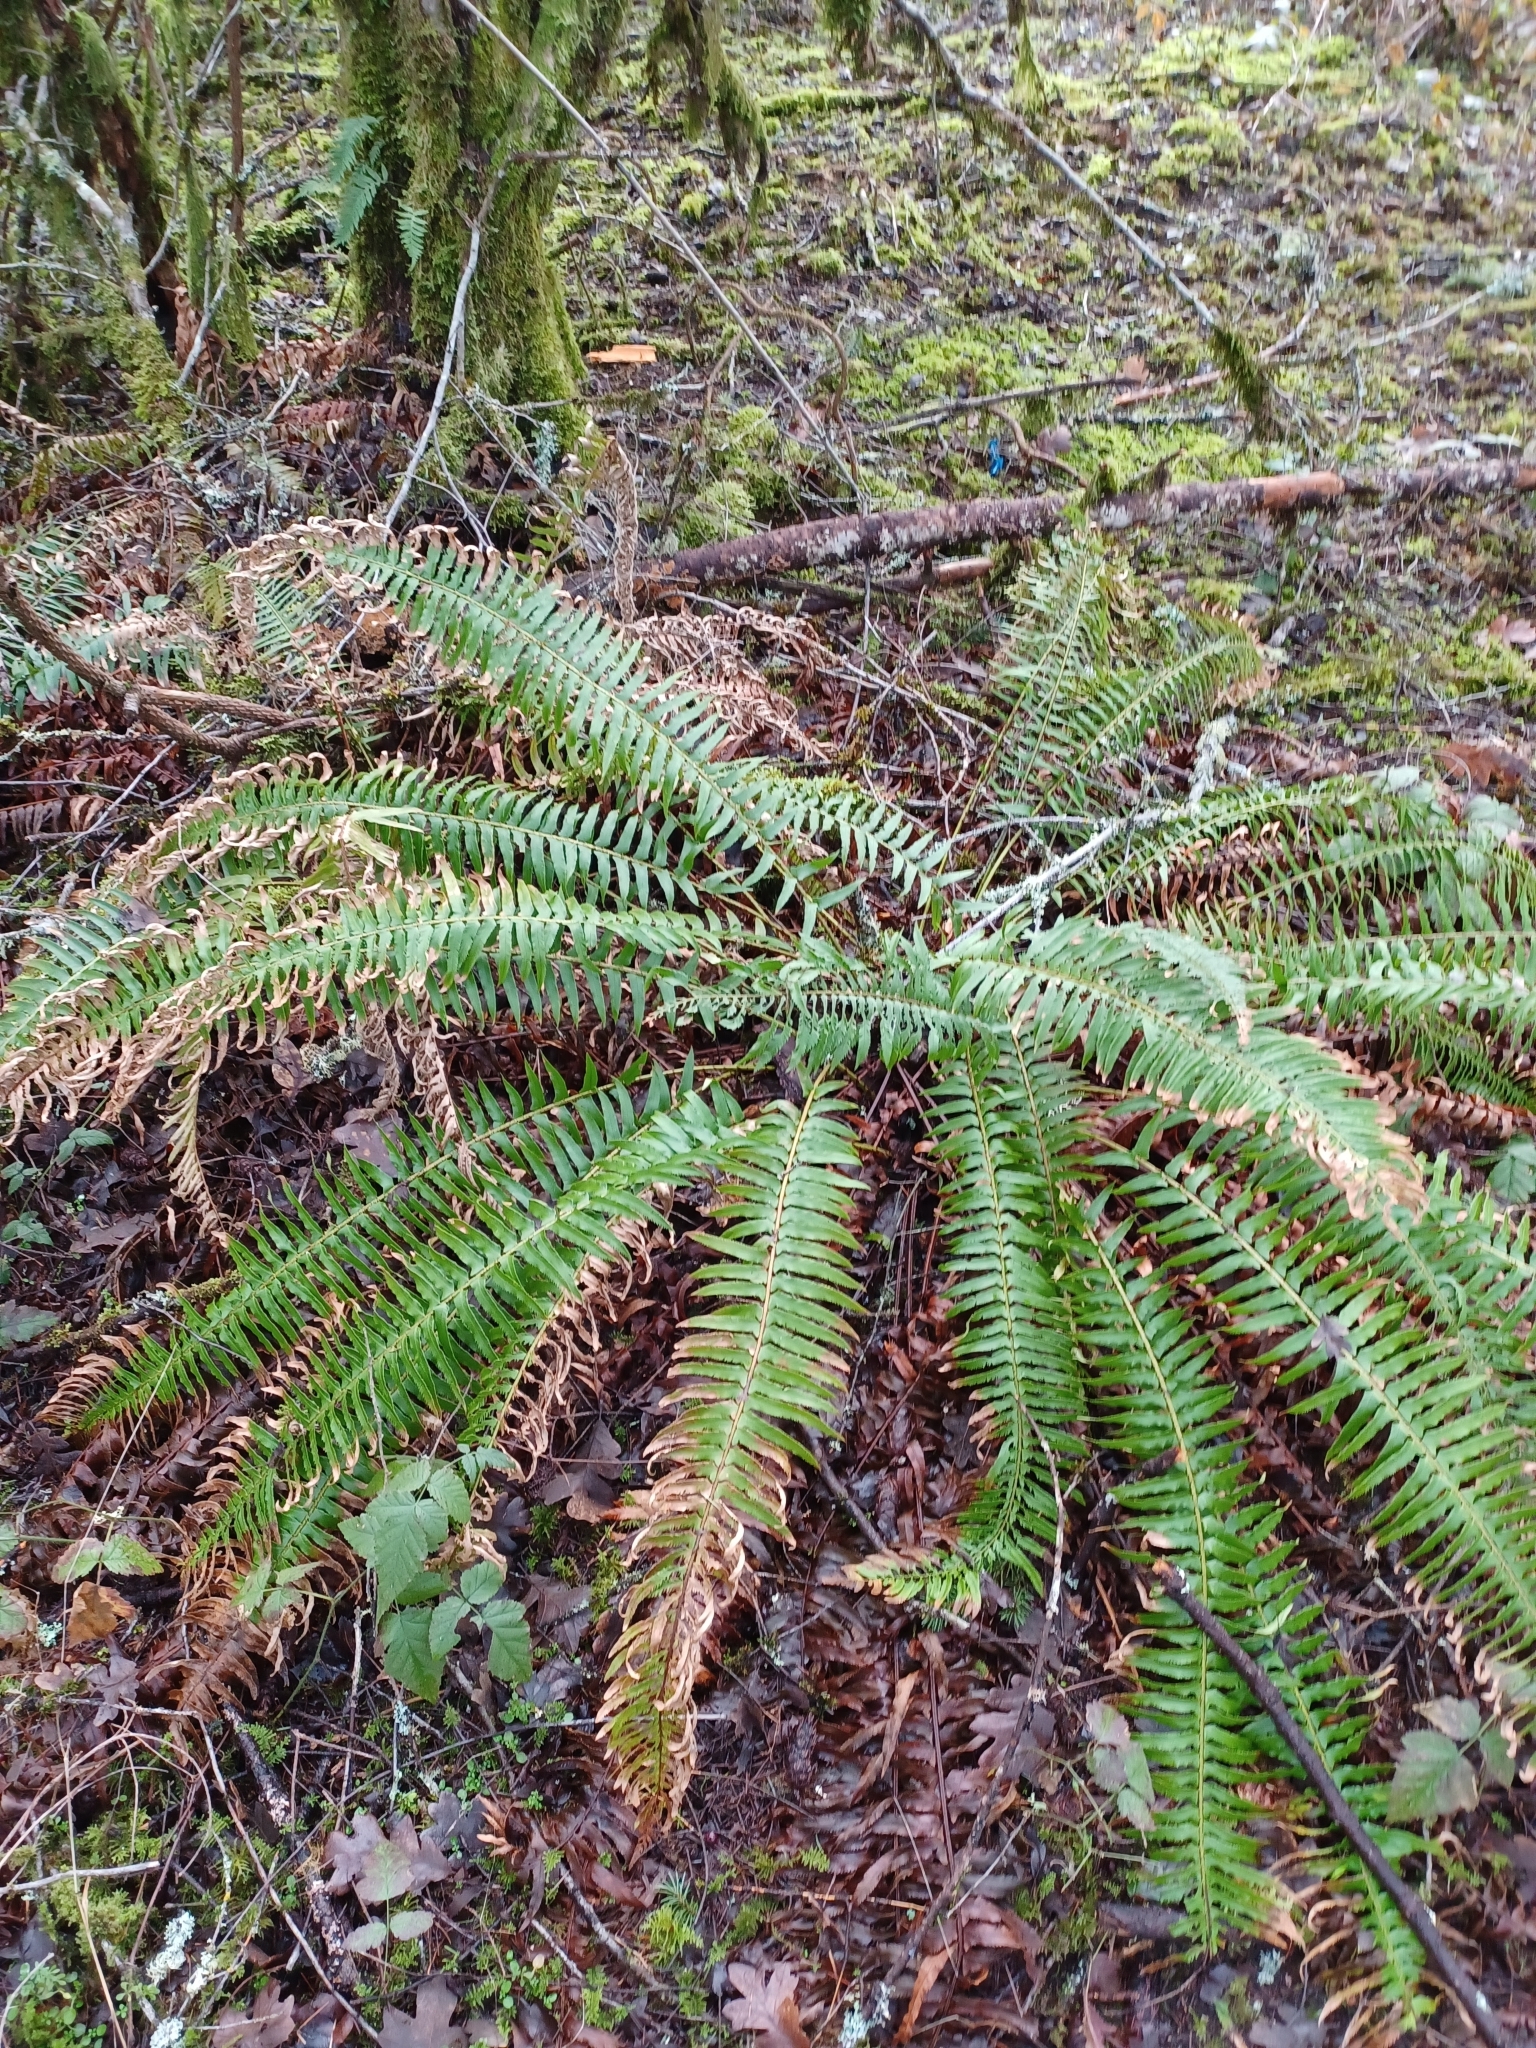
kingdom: Plantae
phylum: Tracheophyta
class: Polypodiopsida
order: Polypodiales
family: Dryopteridaceae
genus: Polystichum
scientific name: Polystichum munitum
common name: Western sword-fern
